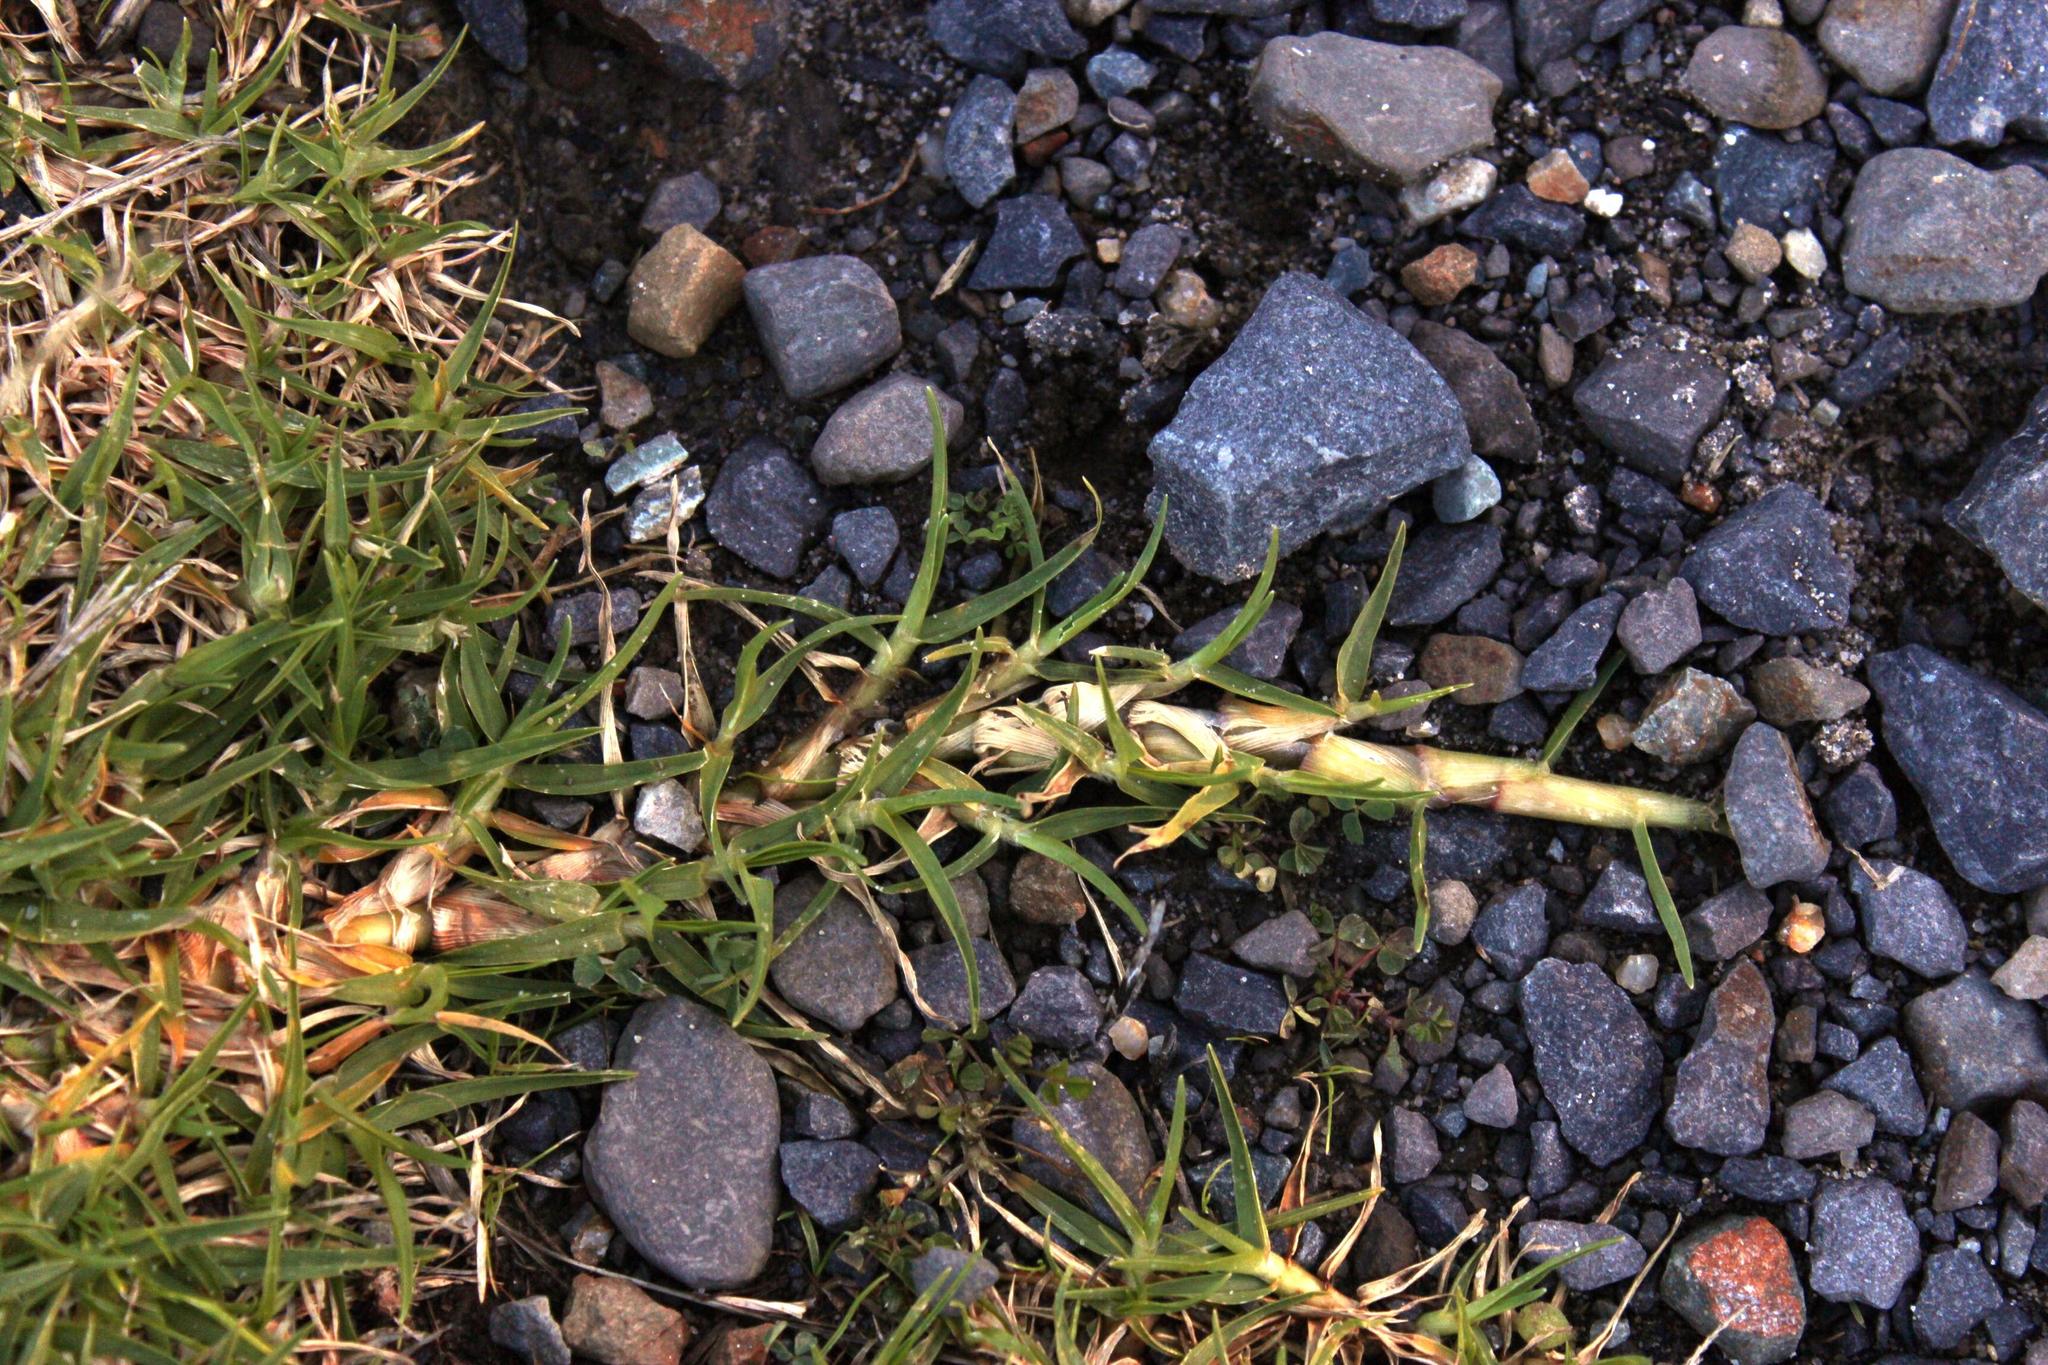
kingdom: Plantae
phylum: Tracheophyta
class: Liliopsida
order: Poales
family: Poaceae
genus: Cenchrus
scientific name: Cenchrus clandestinus
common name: Kikuyugrass
